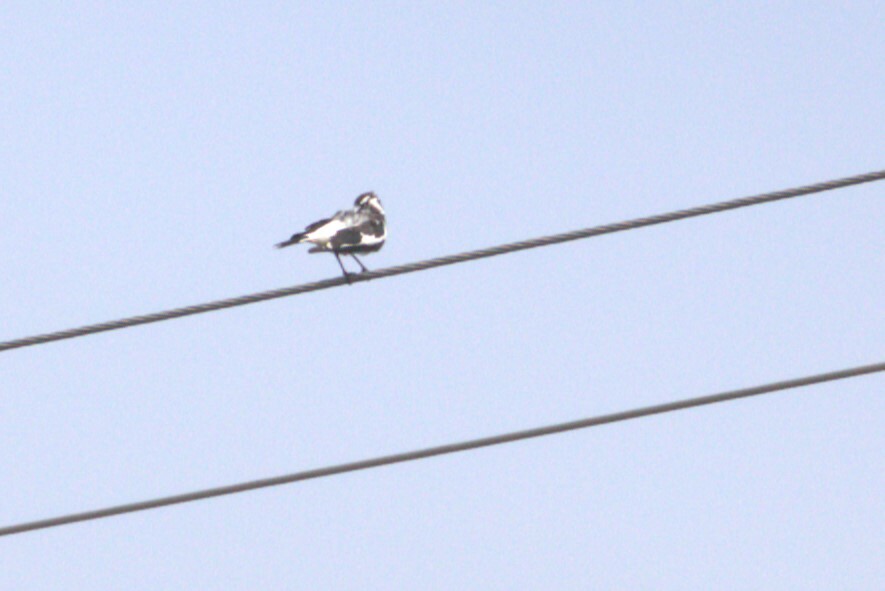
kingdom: Animalia
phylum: Chordata
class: Aves
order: Passeriformes
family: Monarchidae
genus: Grallina
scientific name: Grallina cyanoleuca
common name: Magpie-lark
